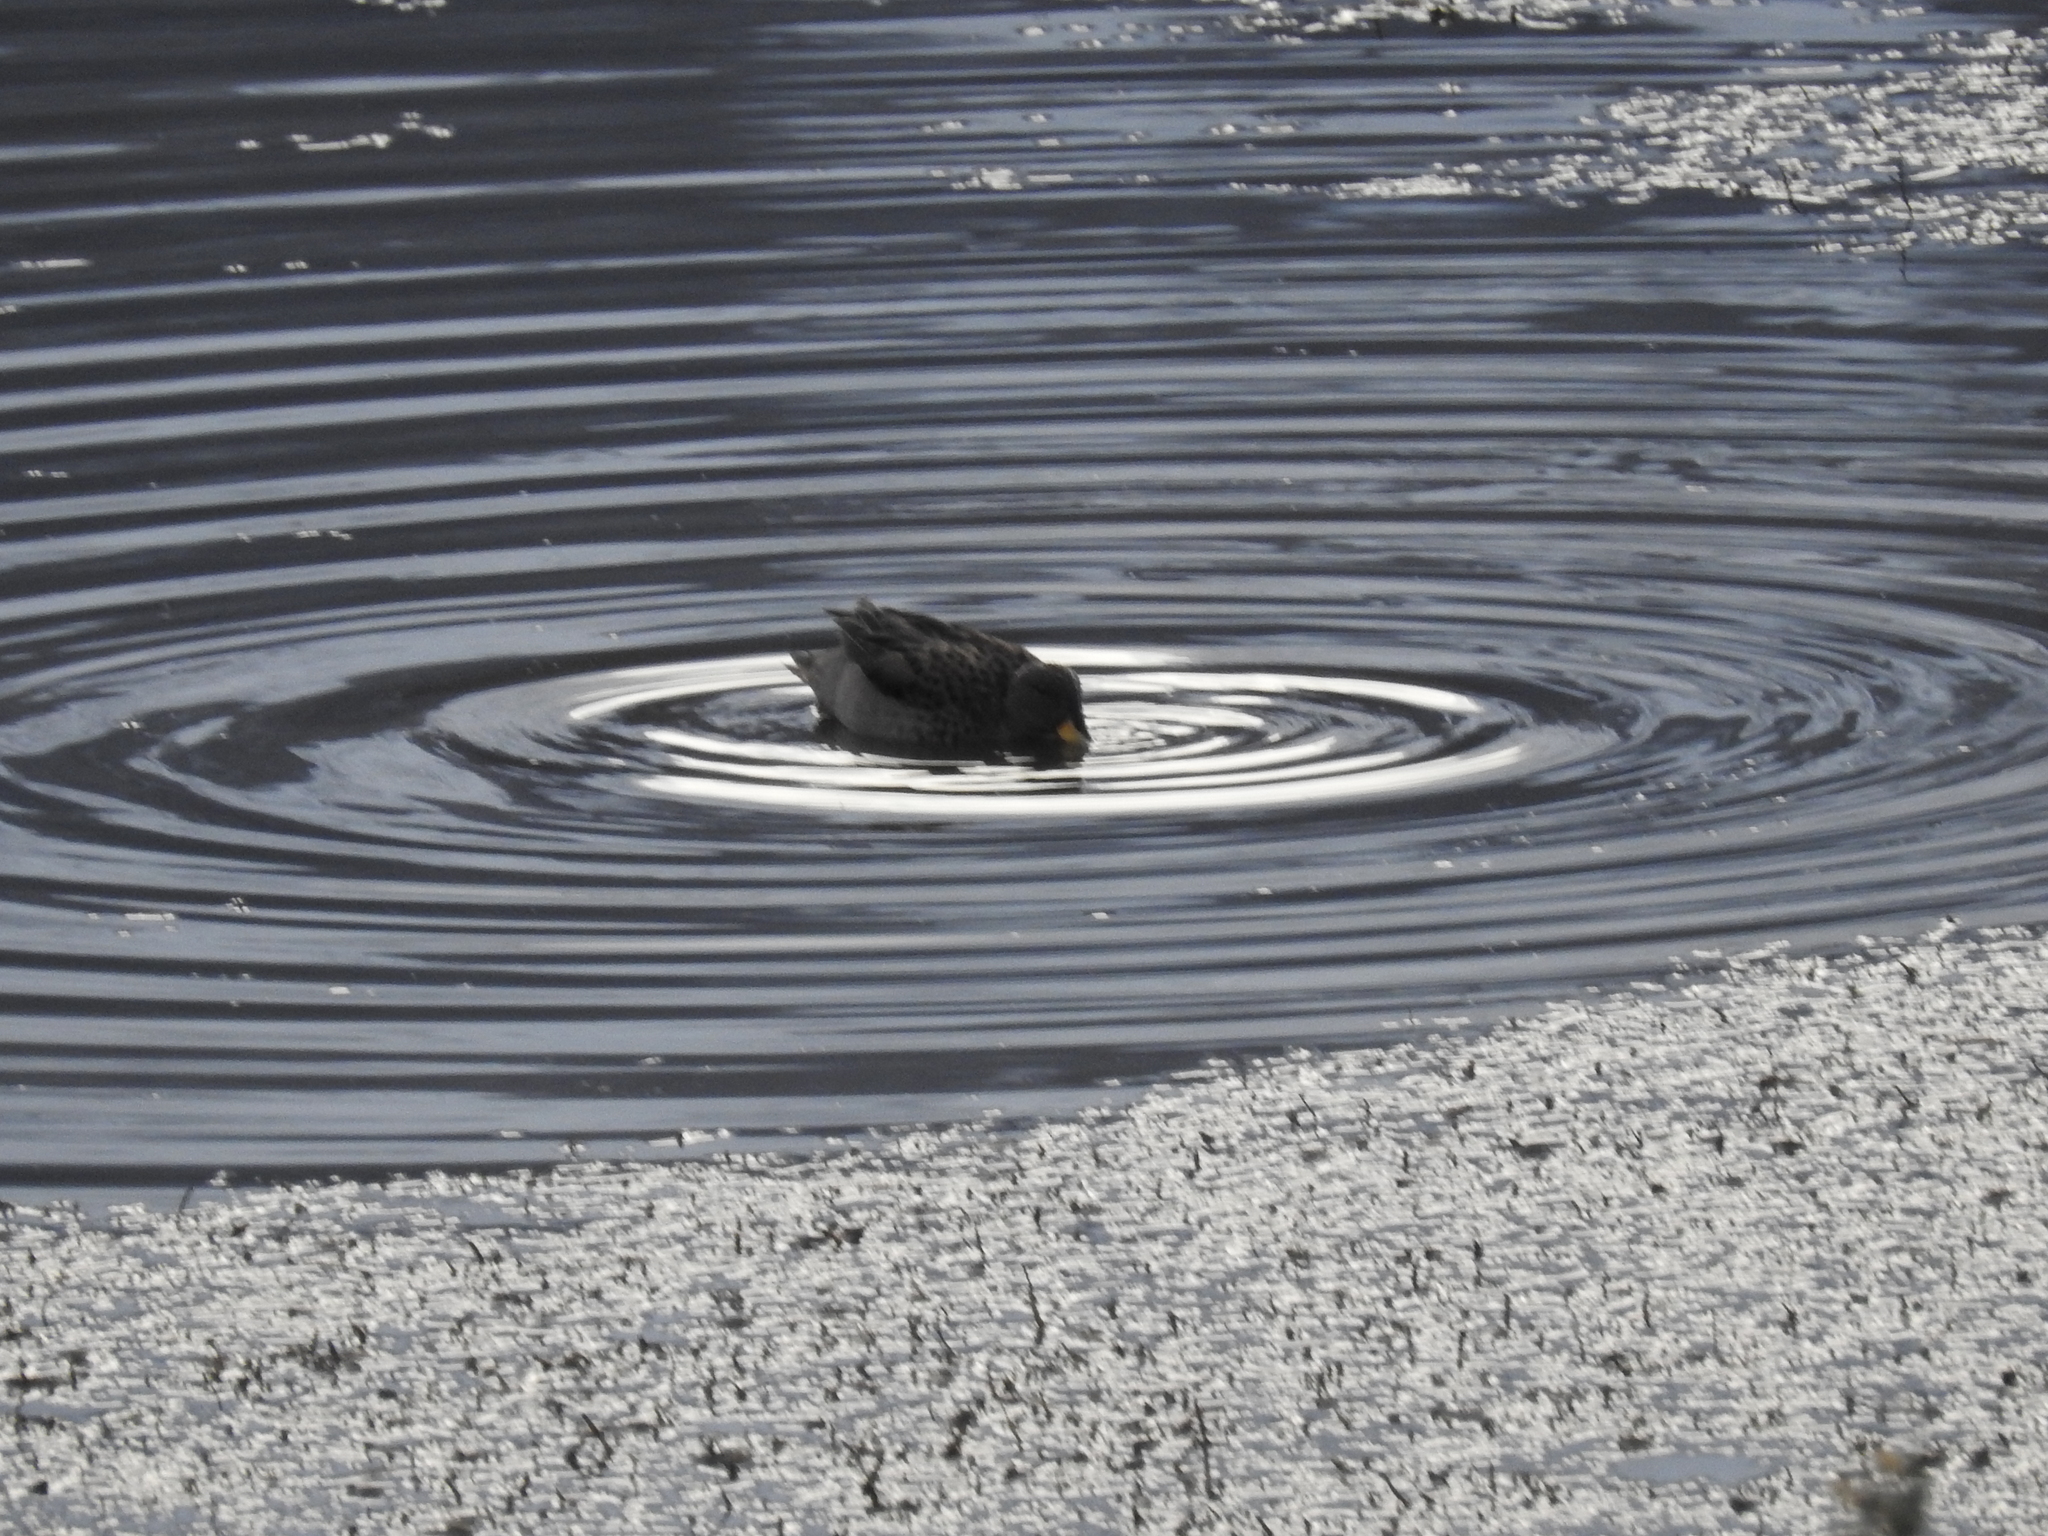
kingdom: Animalia
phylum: Chordata
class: Aves
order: Anseriformes
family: Anatidae
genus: Anas
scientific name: Anas flavirostris
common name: Yellow-billed teal
